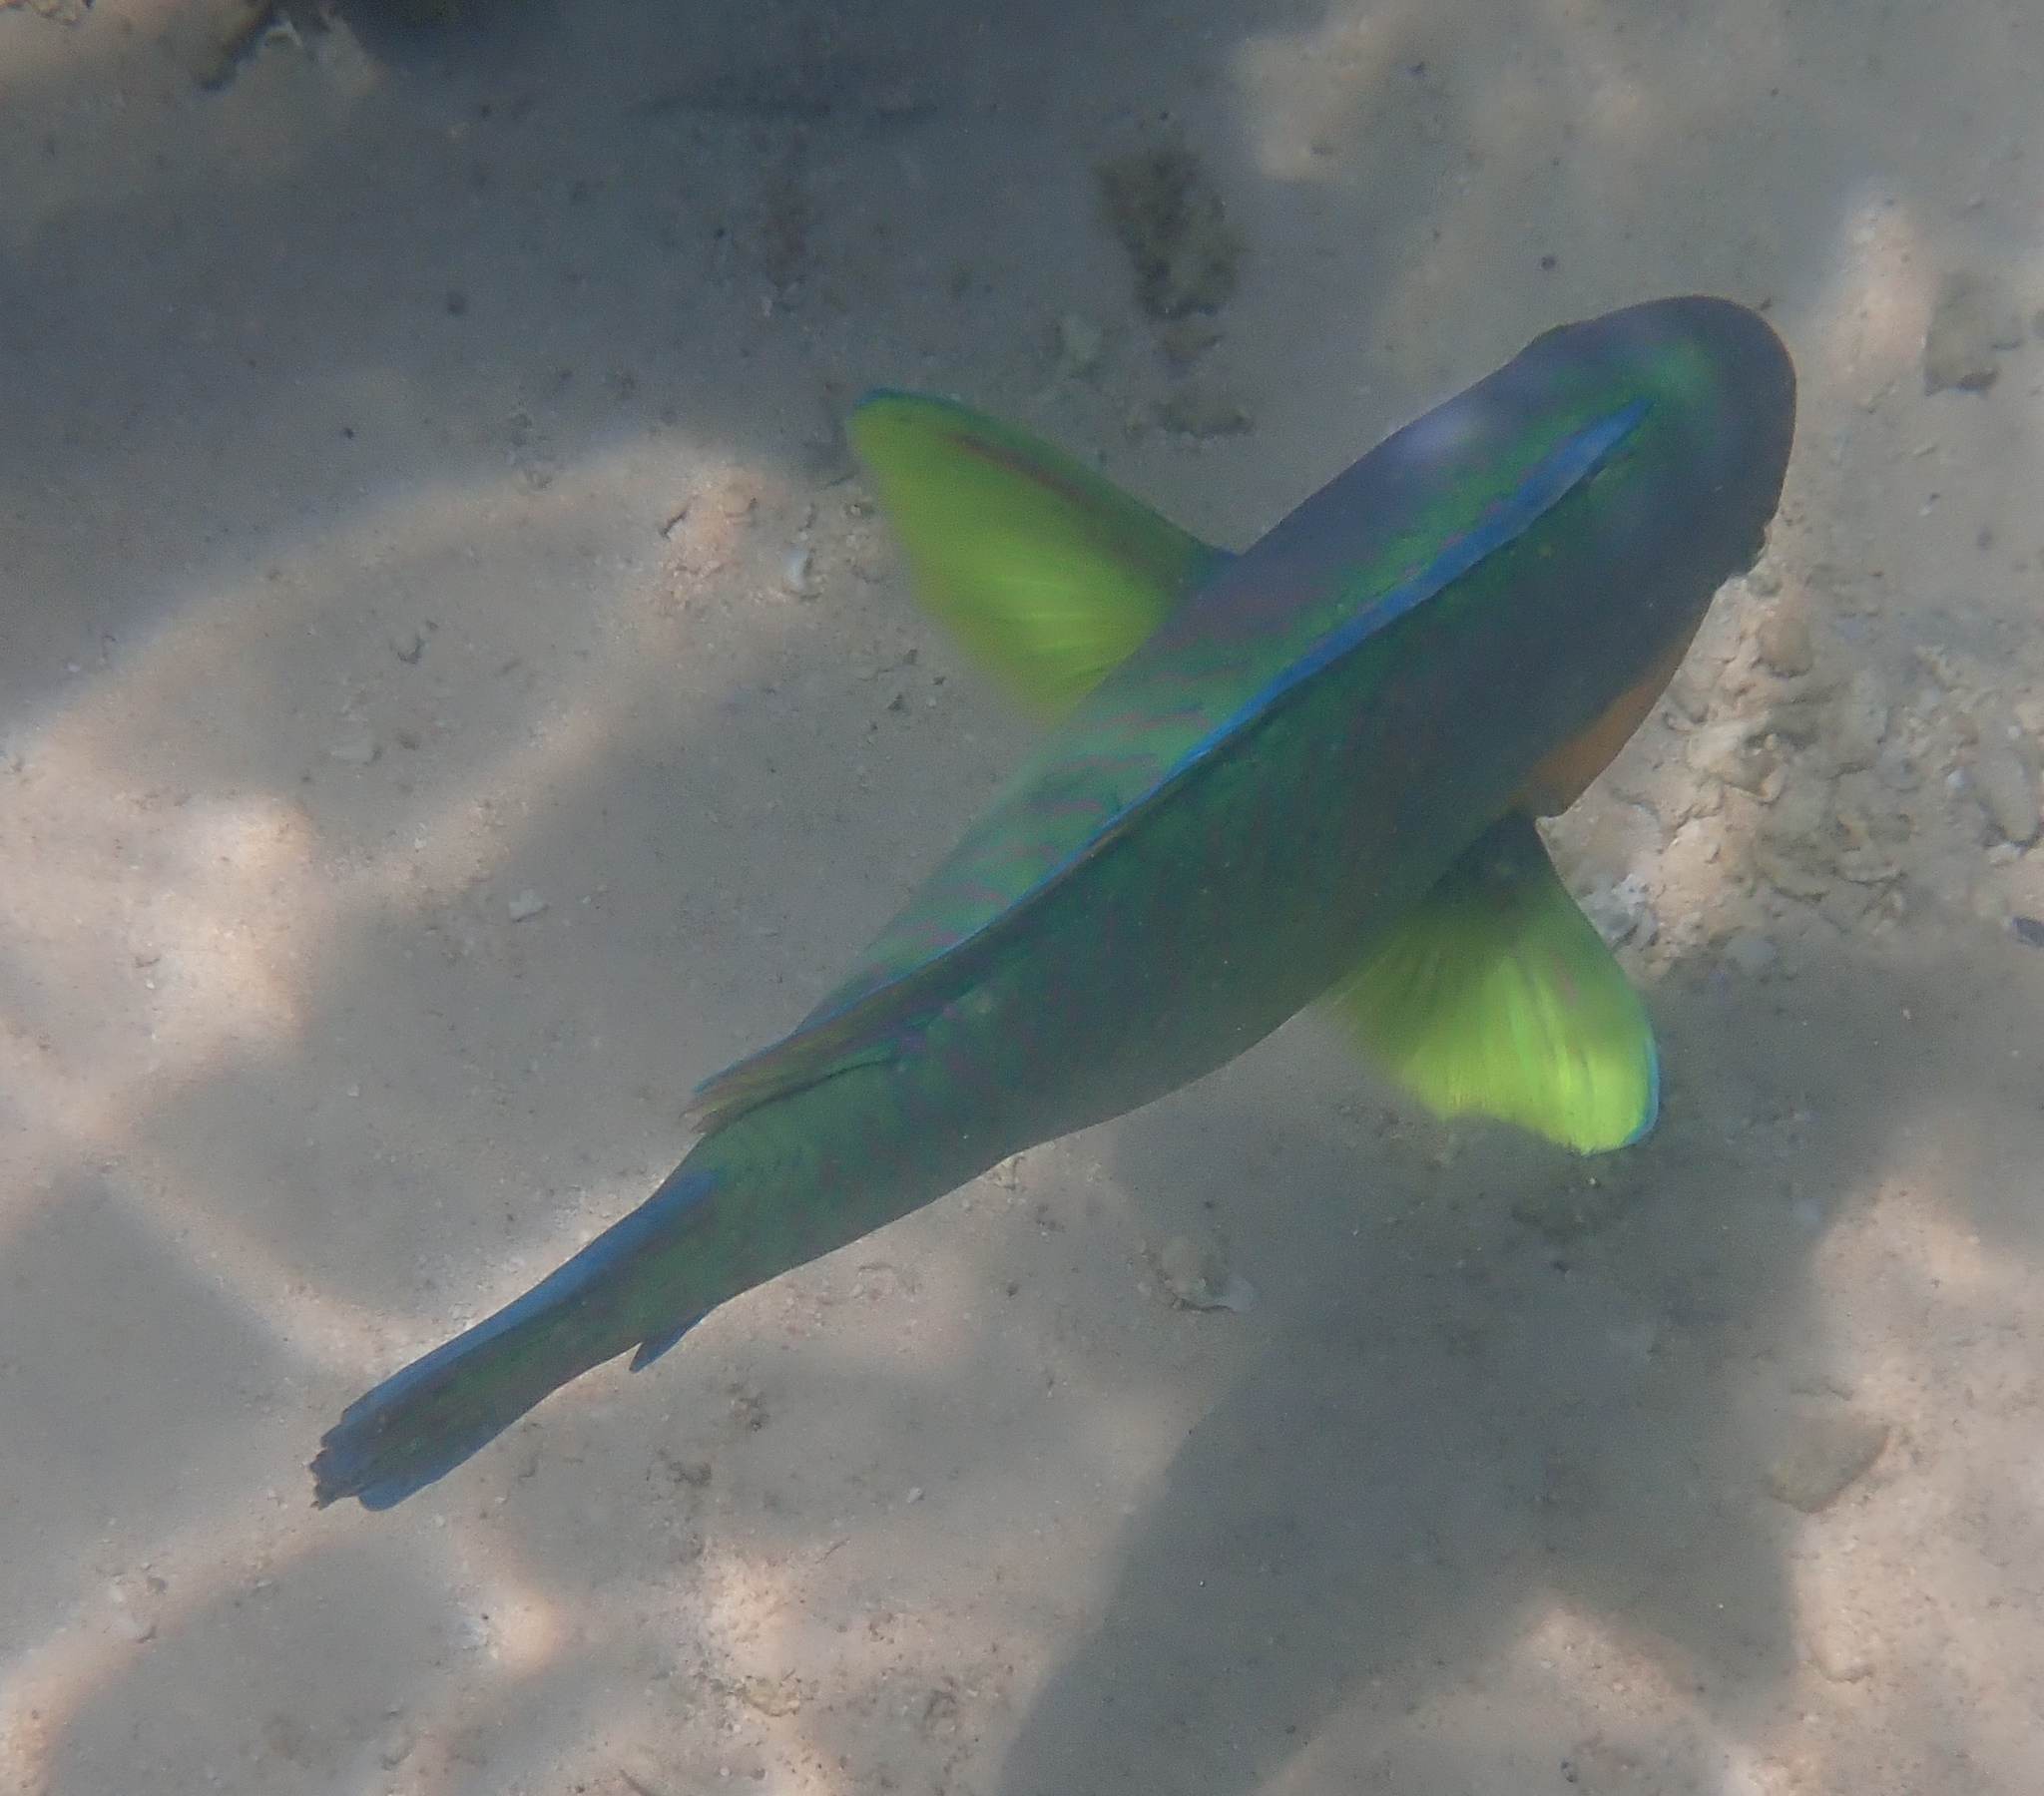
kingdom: Animalia
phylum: Chordata
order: Perciformes
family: Scaridae
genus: Scarus
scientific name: Scarus rivulatus
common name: Surf parrotfish
